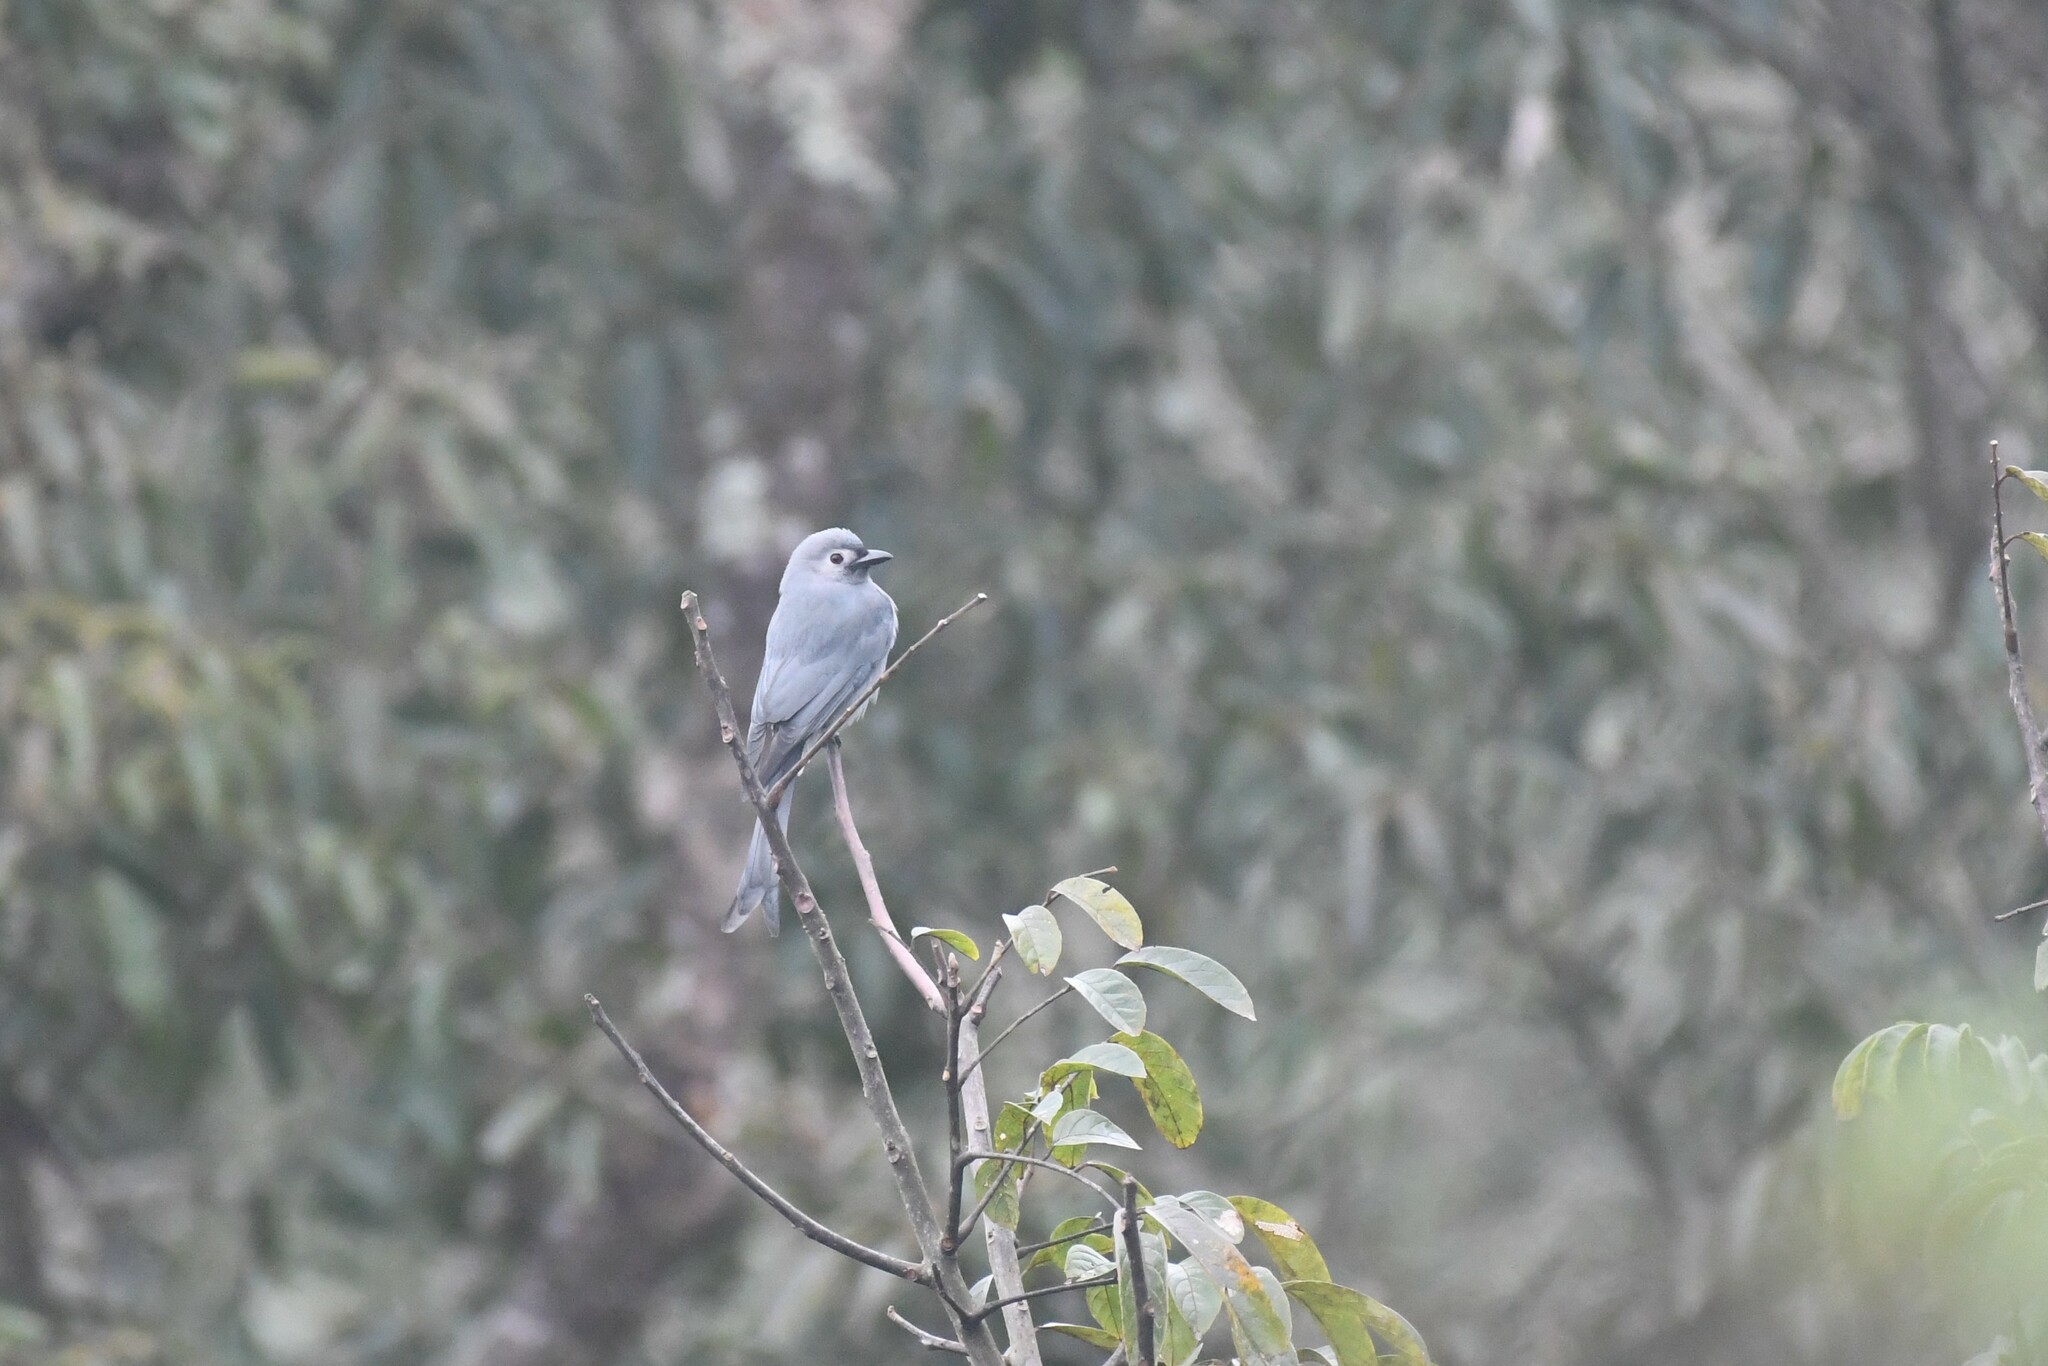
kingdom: Animalia
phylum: Chordata
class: Aves
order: Passeriformes
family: Dicruridae
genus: Dicrurus
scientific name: Dicrurus leucophaeus
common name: Ashy drongo
